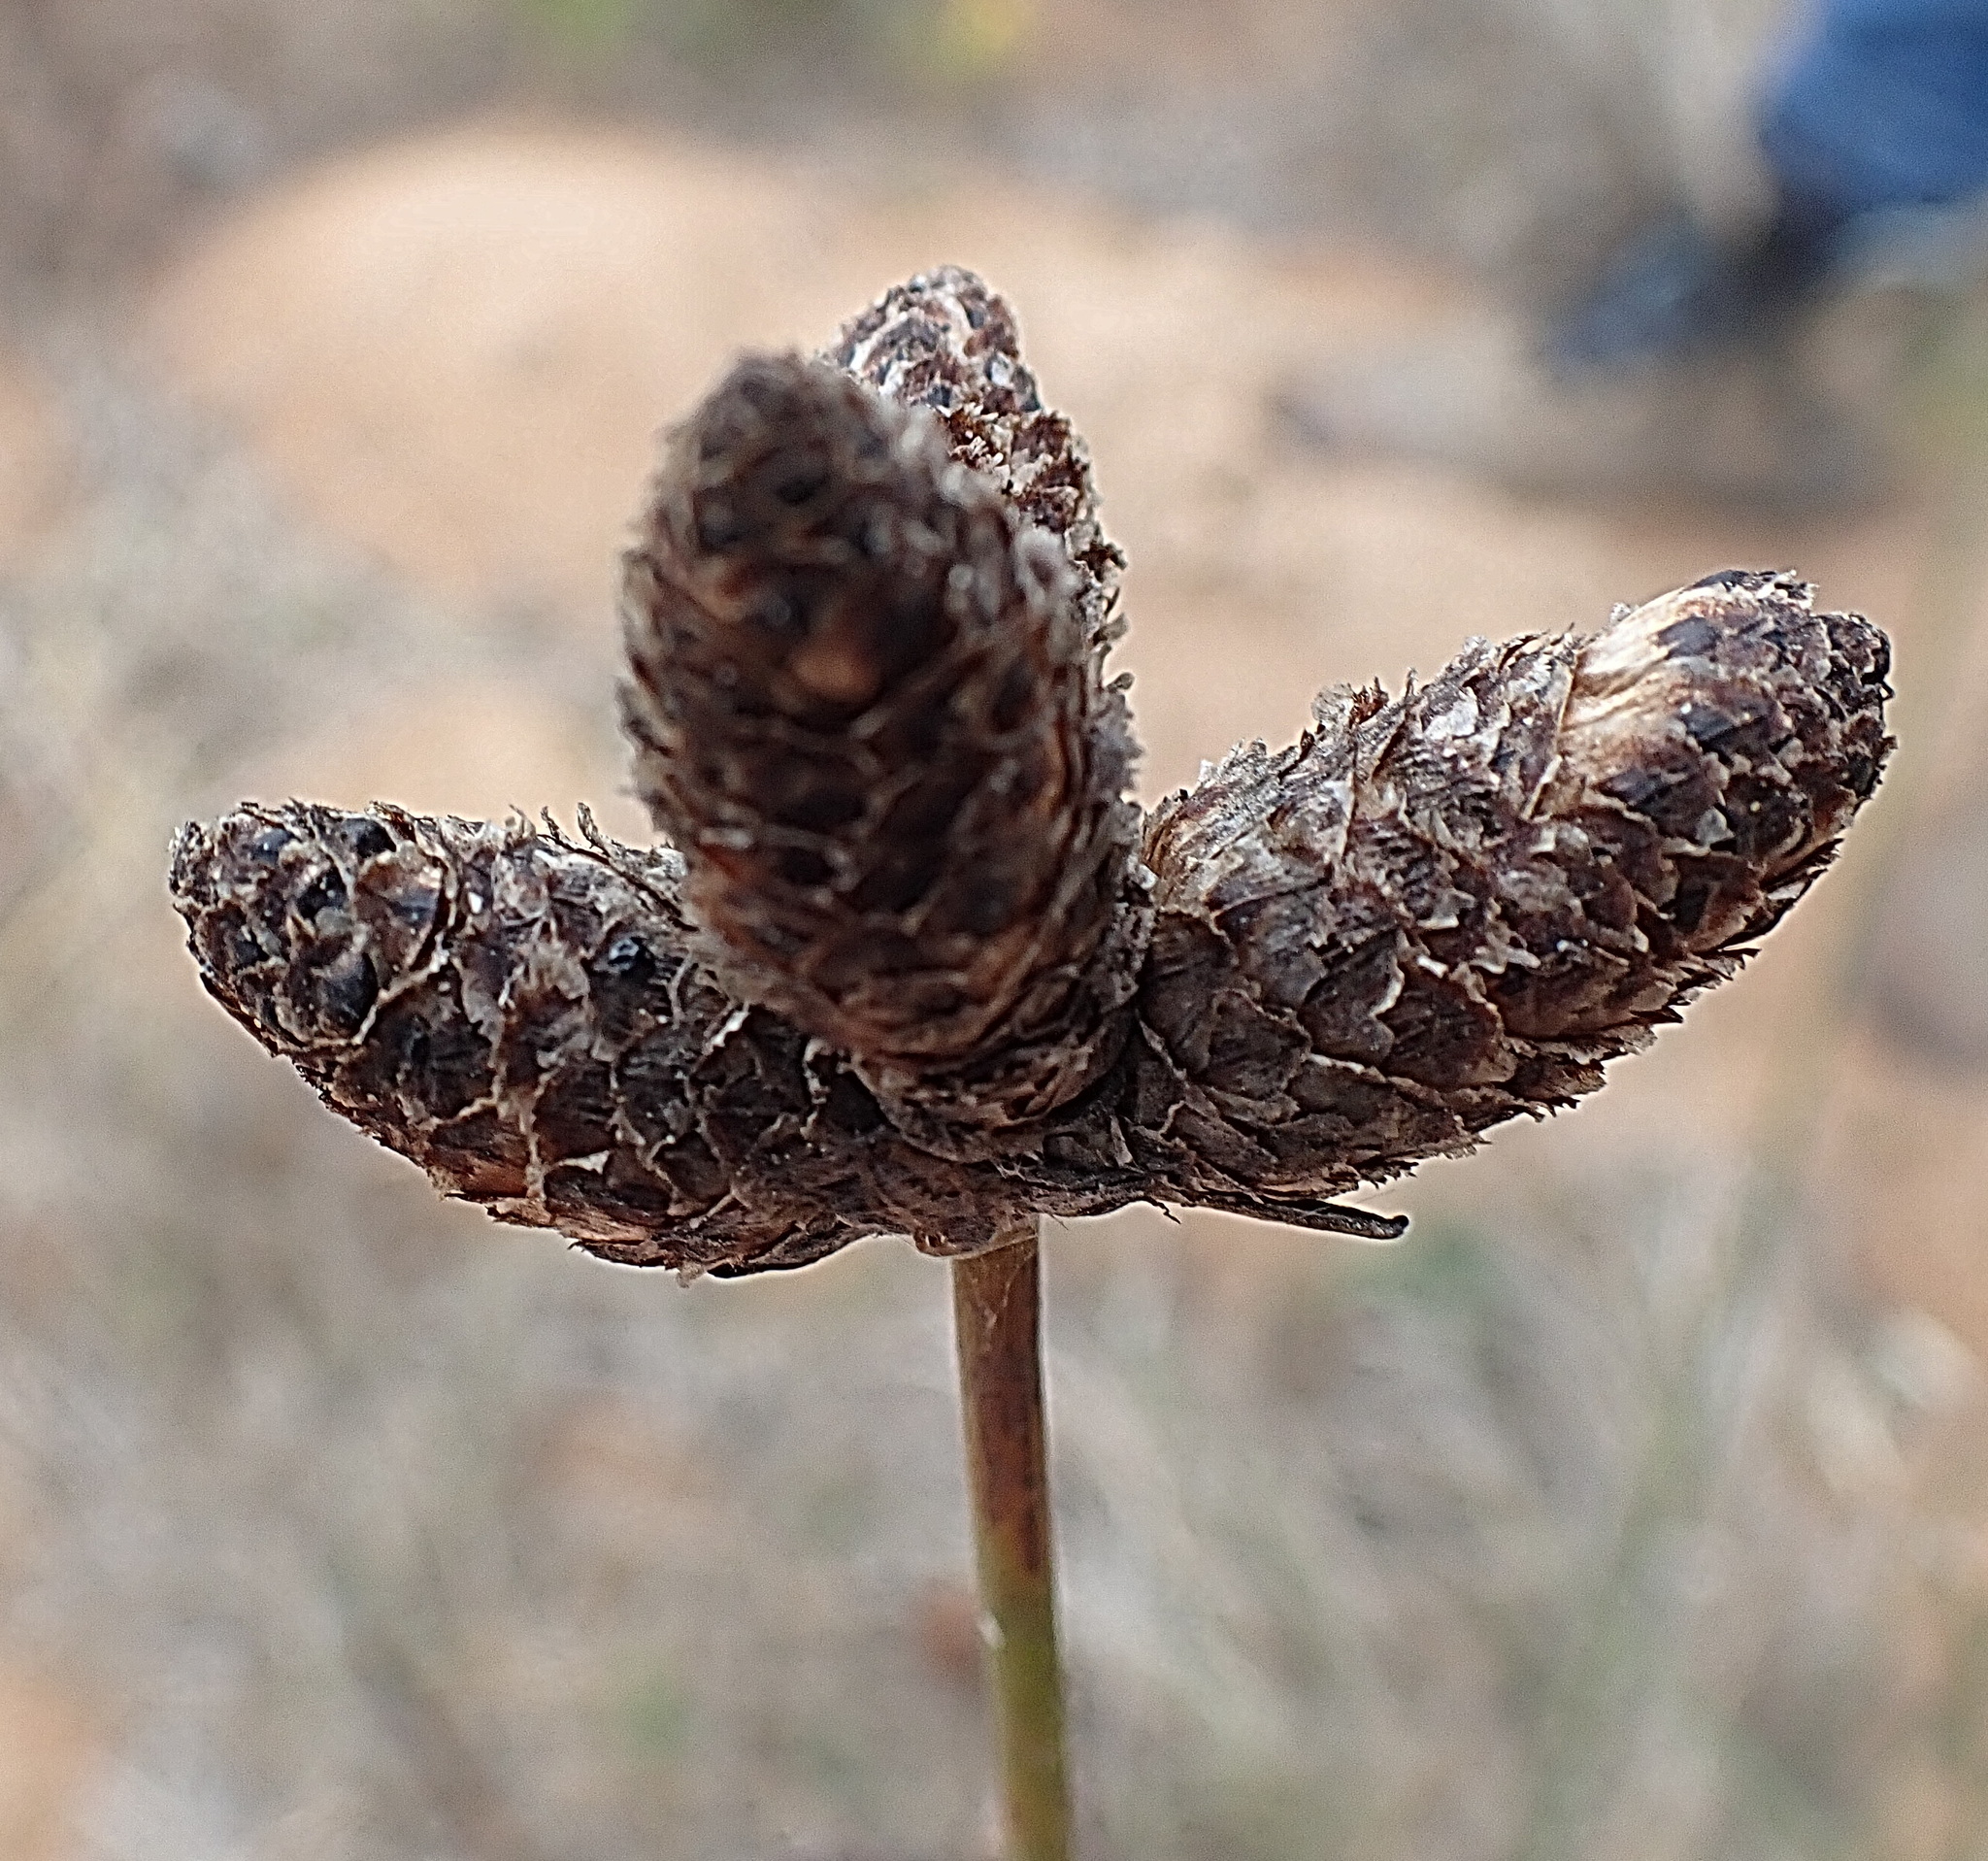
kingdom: Plantae
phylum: Tracheophyta
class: Liliopsida
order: Poales
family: Cyperaceae
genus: Hellmuthia
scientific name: Hellmuthia membranacea
